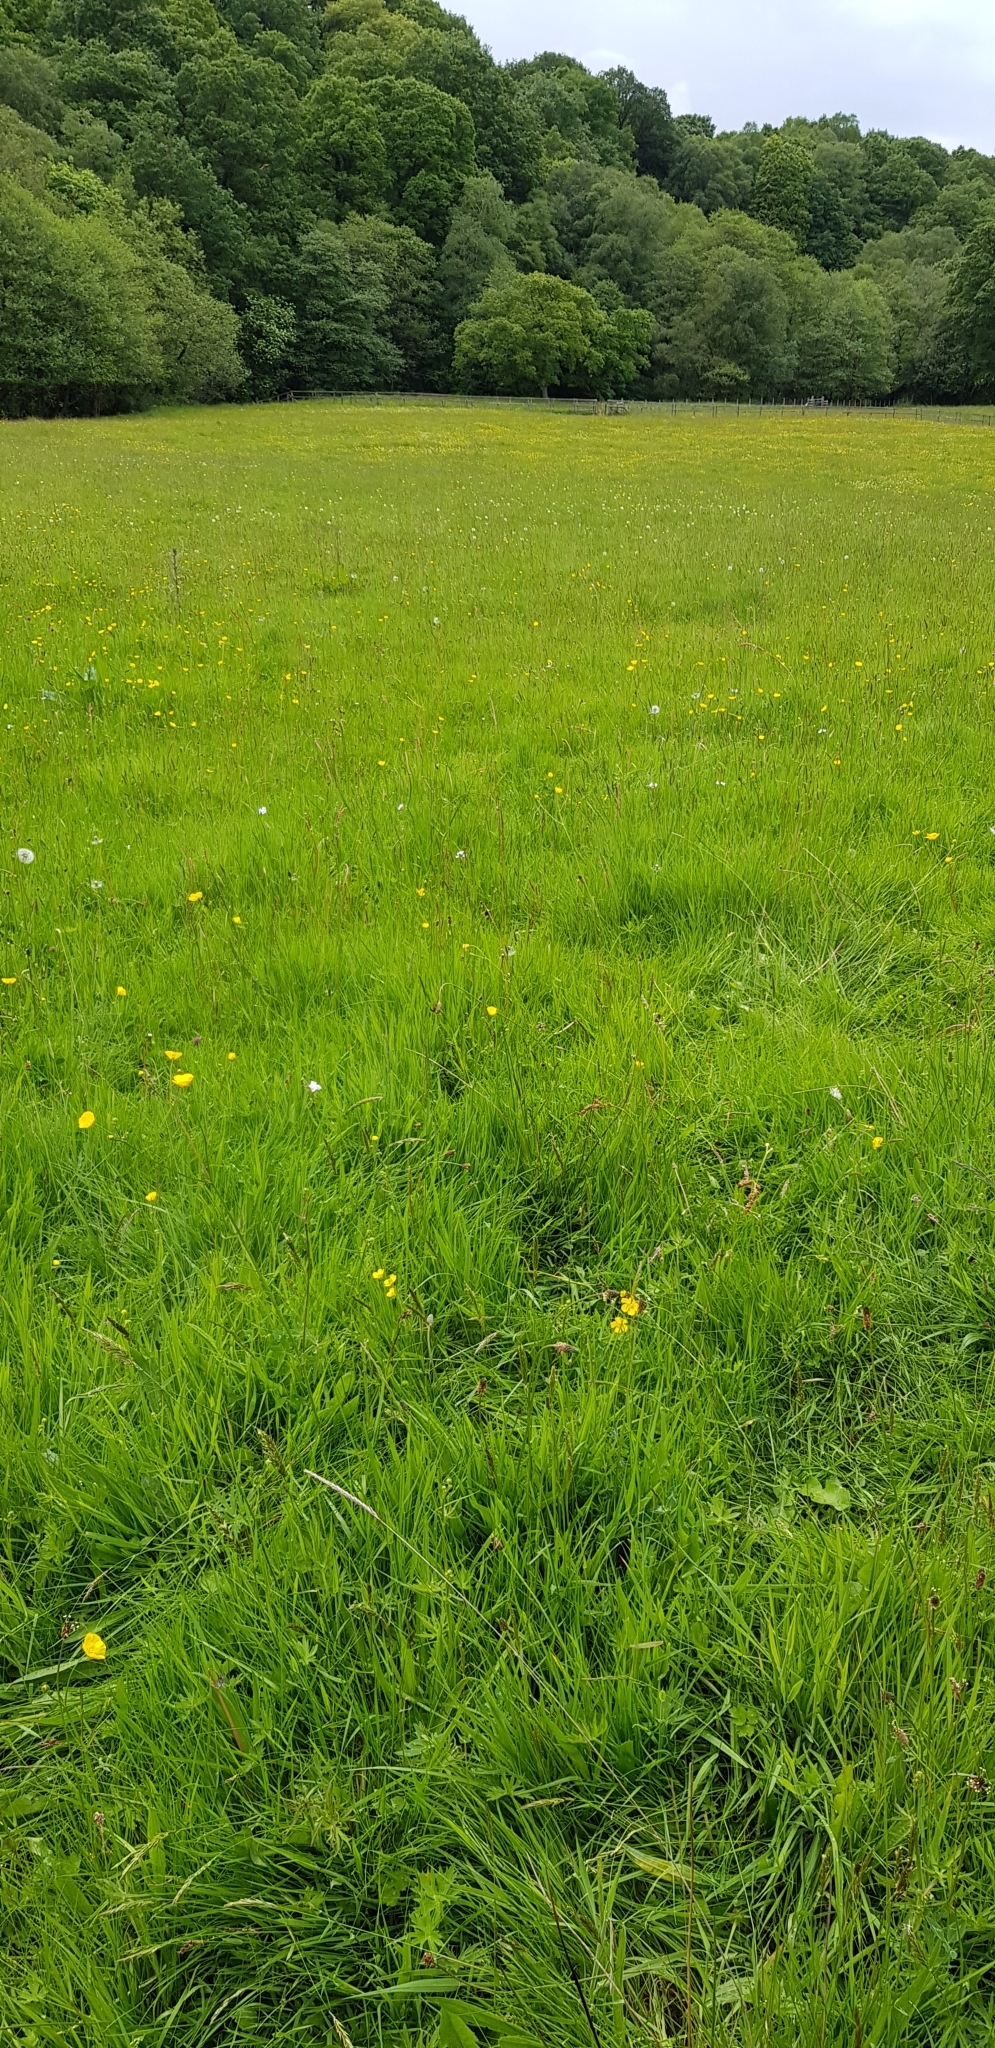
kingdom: Animalia
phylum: Arthropoda
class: Insecta
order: Lepidoptera
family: Lycaenidae
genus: Lycaena
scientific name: Lycaena phlaeas
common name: Small copper
